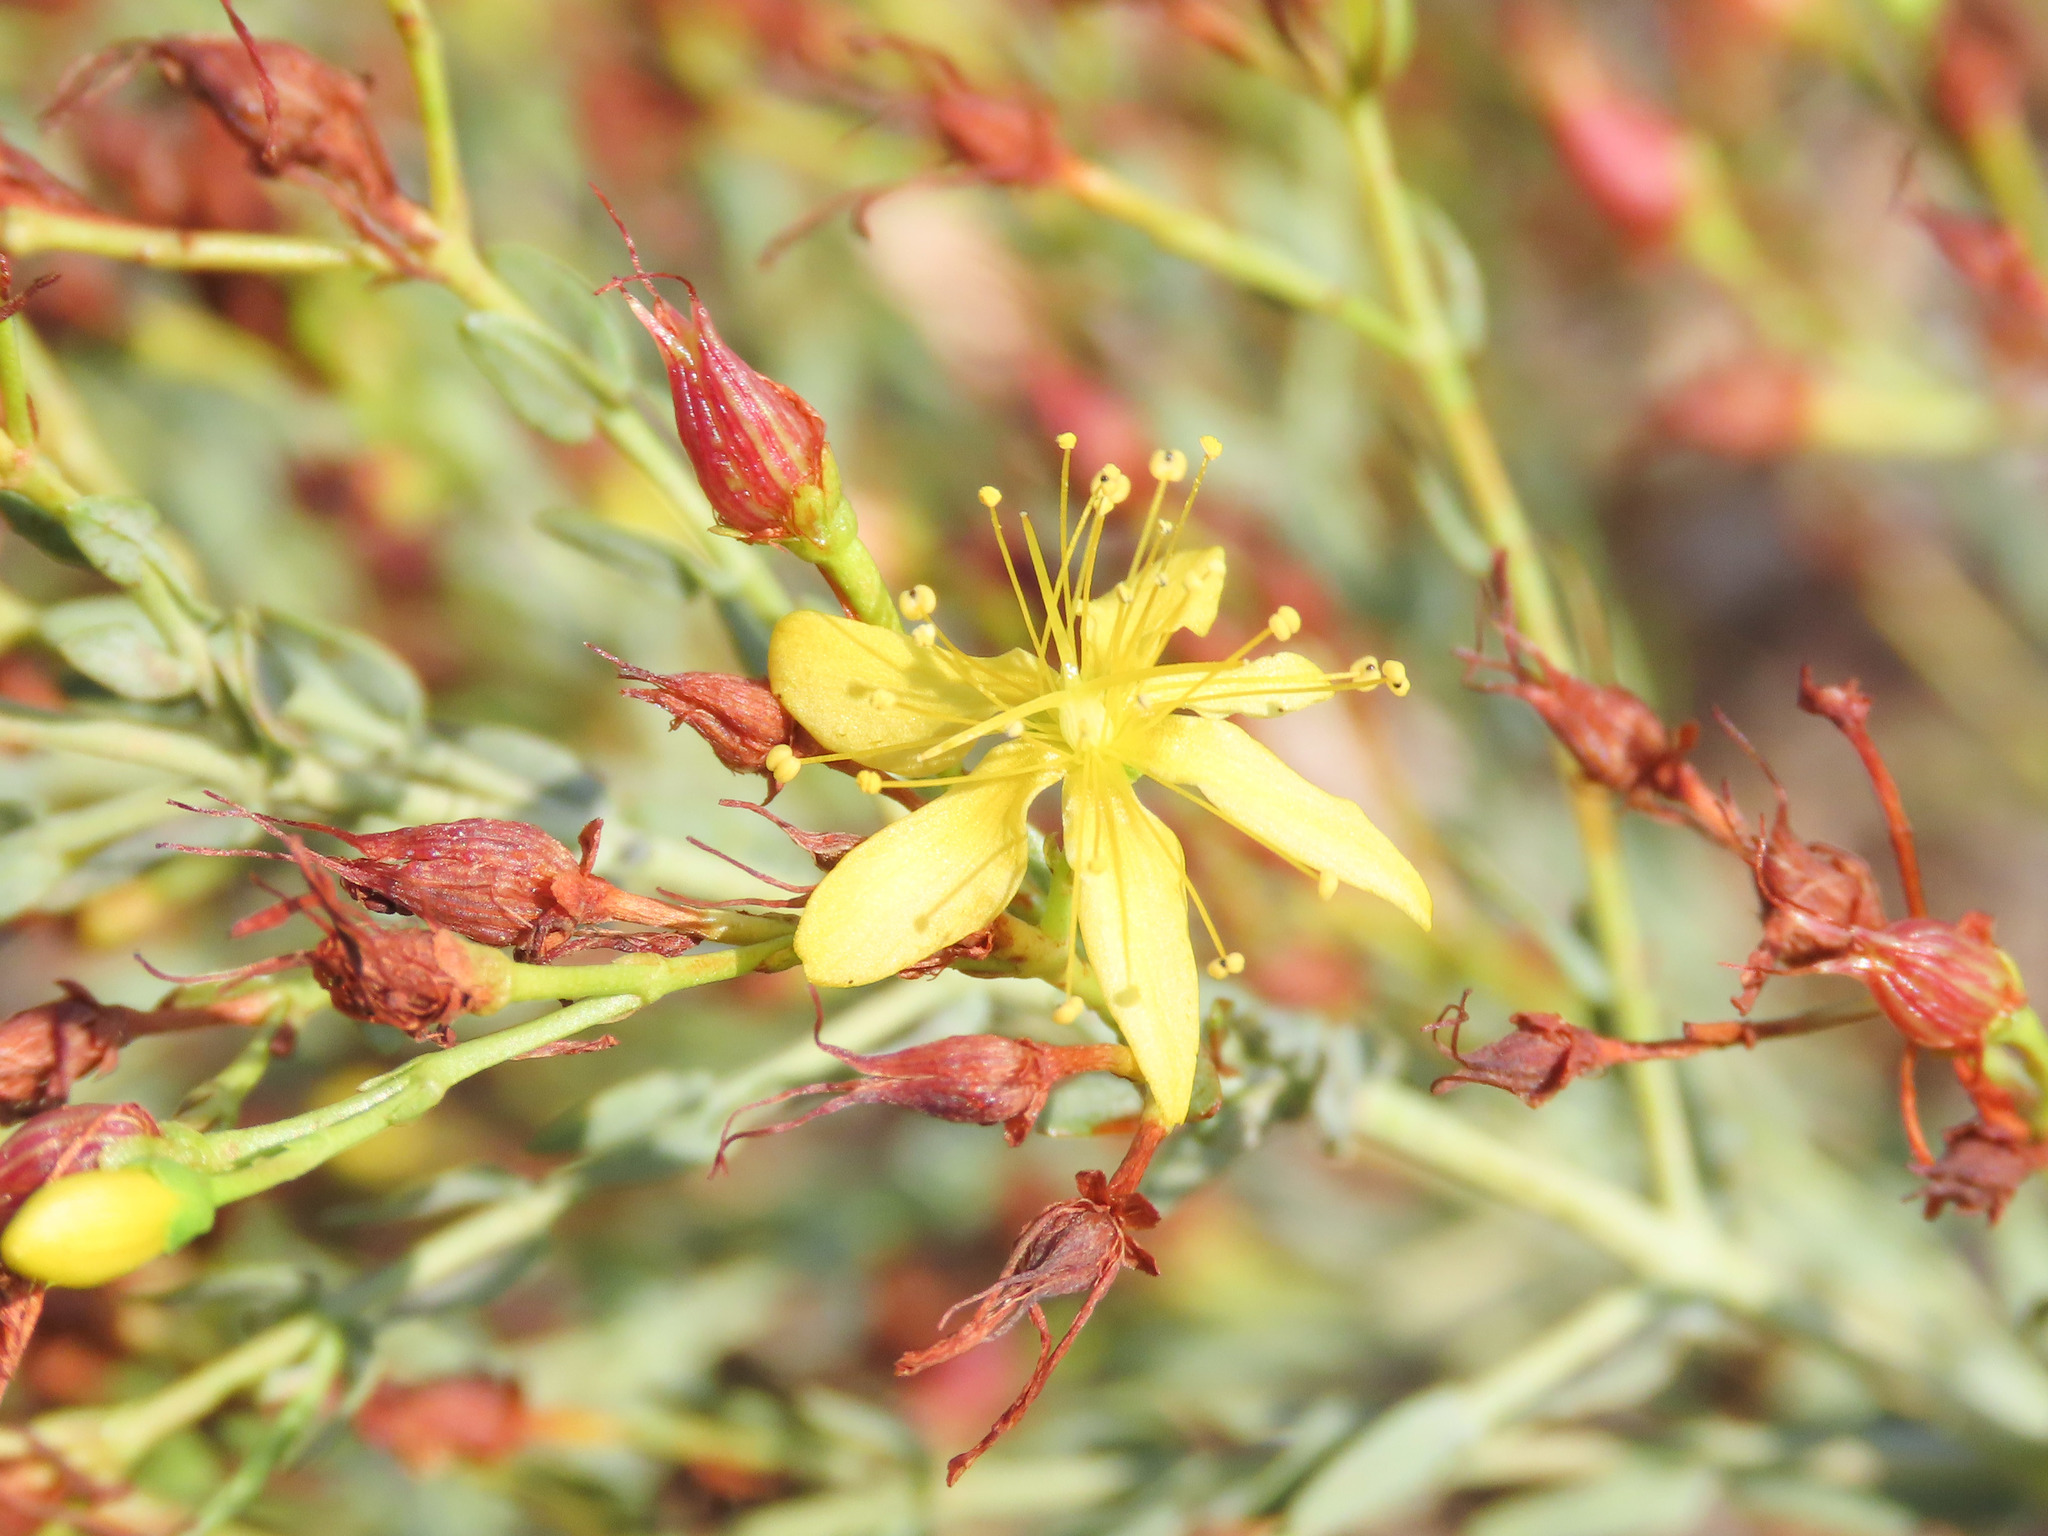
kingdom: Plantae
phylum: Tracheophyta
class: Magnoliopsida
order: Malpighiales
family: Hypericaceae
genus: Hypericum
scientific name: Hypericum triquetrifolium
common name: Tangled hypericum
